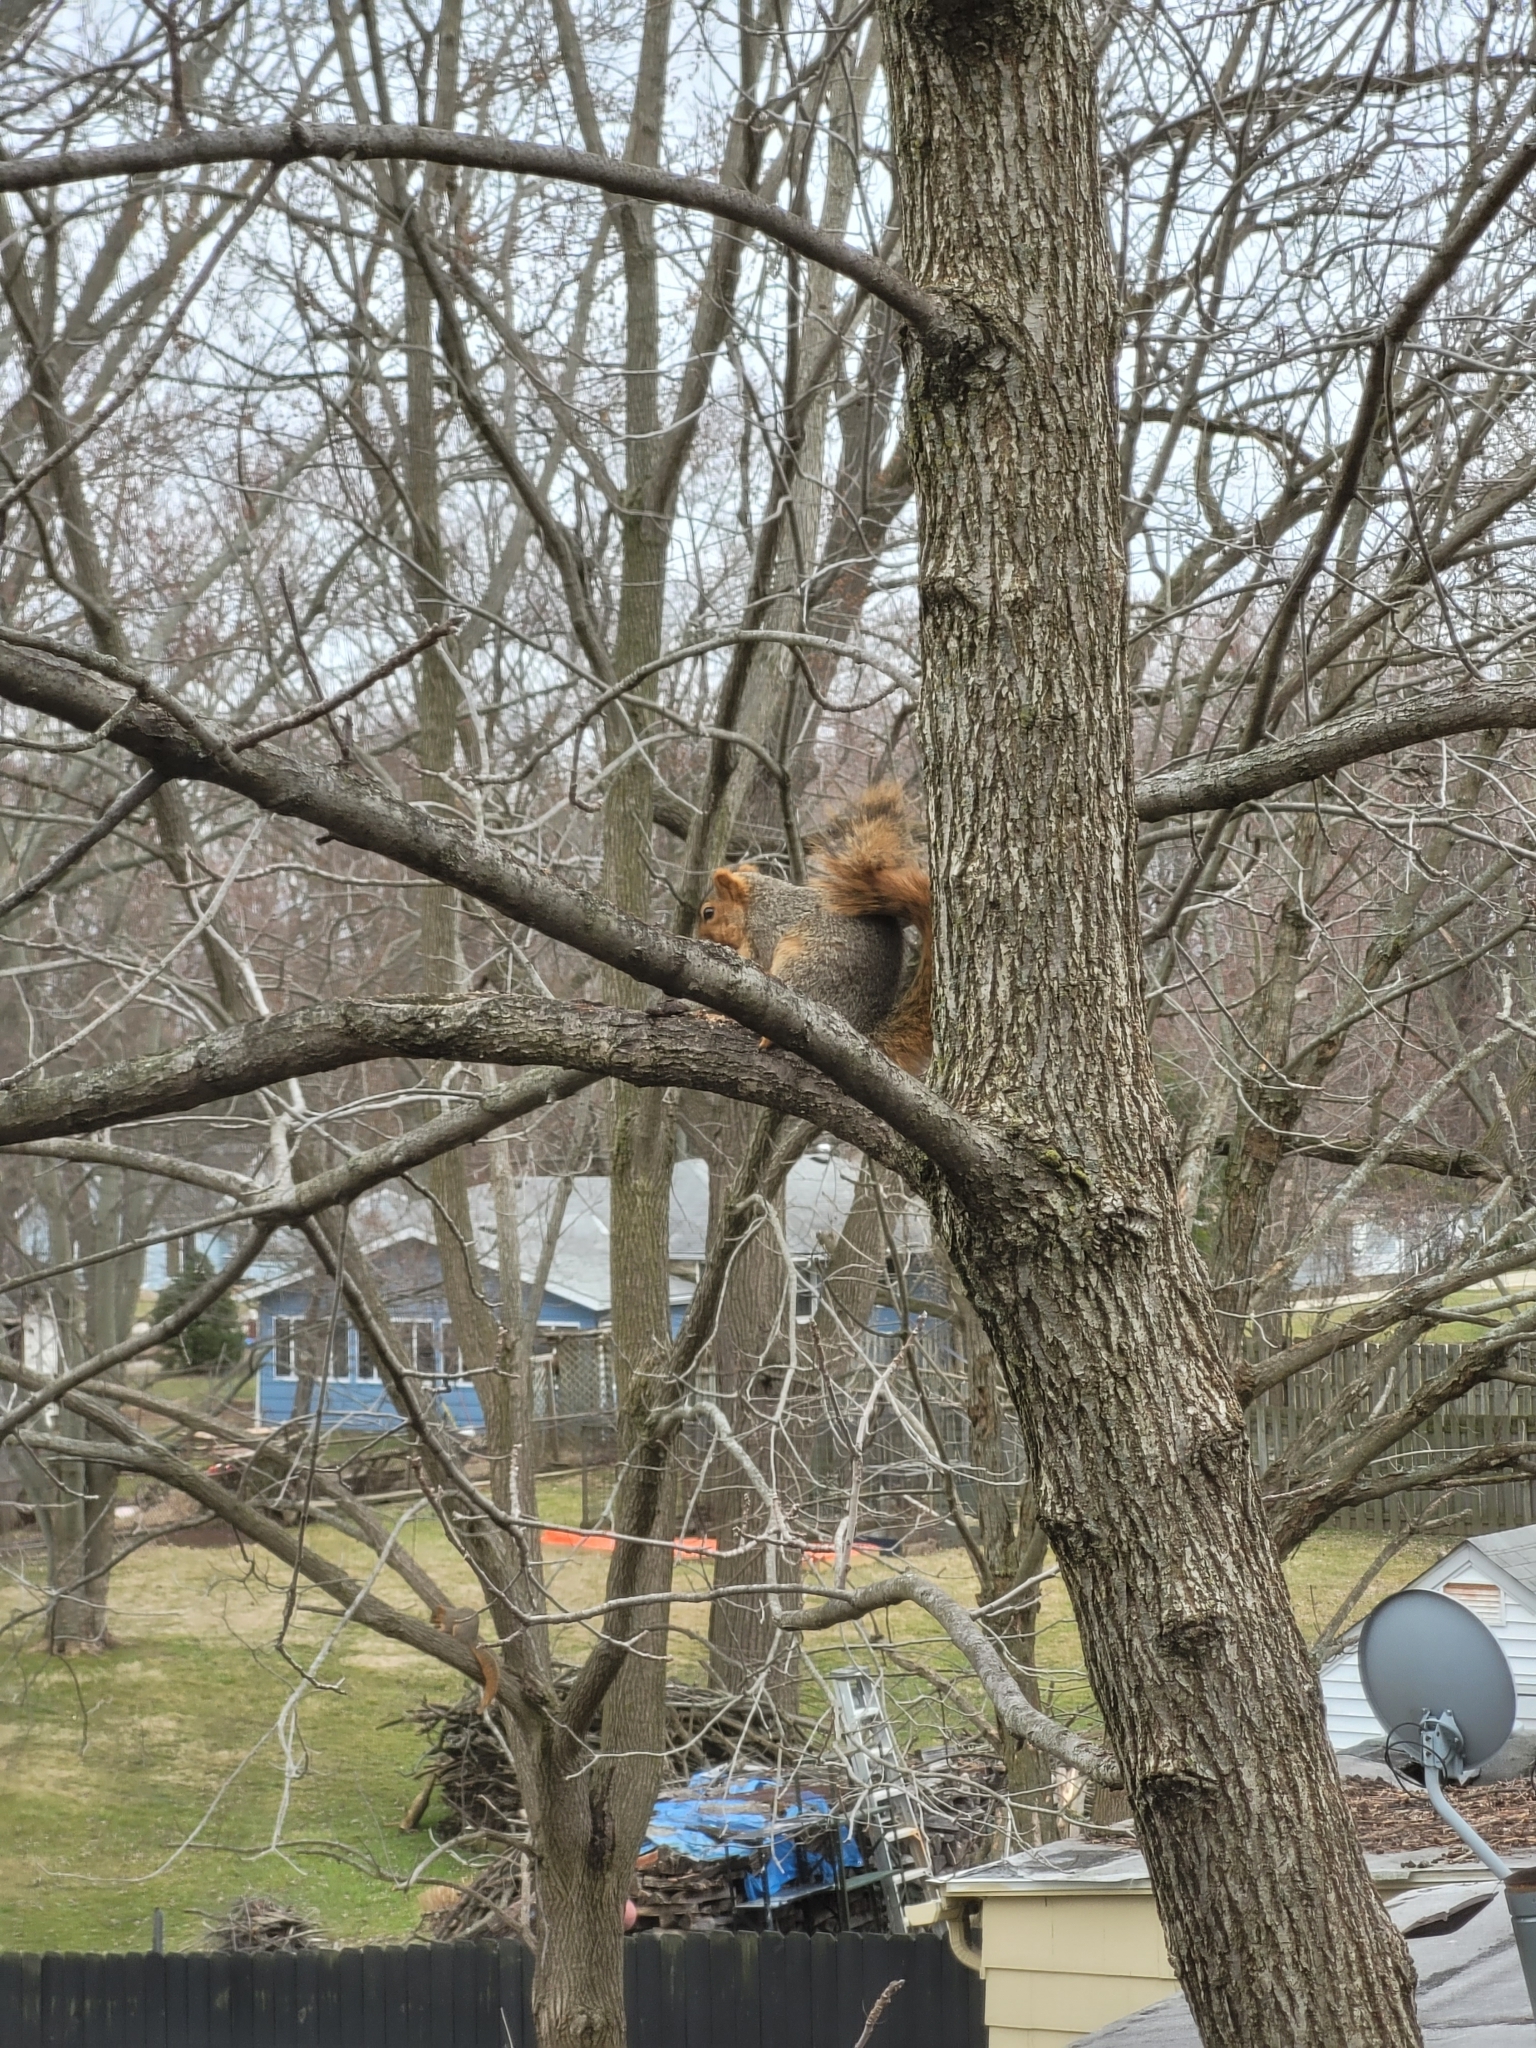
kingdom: Animalia
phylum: Chordata
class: Mammalia
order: Rodentia
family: Sciuridae
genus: Sciurus
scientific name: Sciurus niger
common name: Fox squirrel
